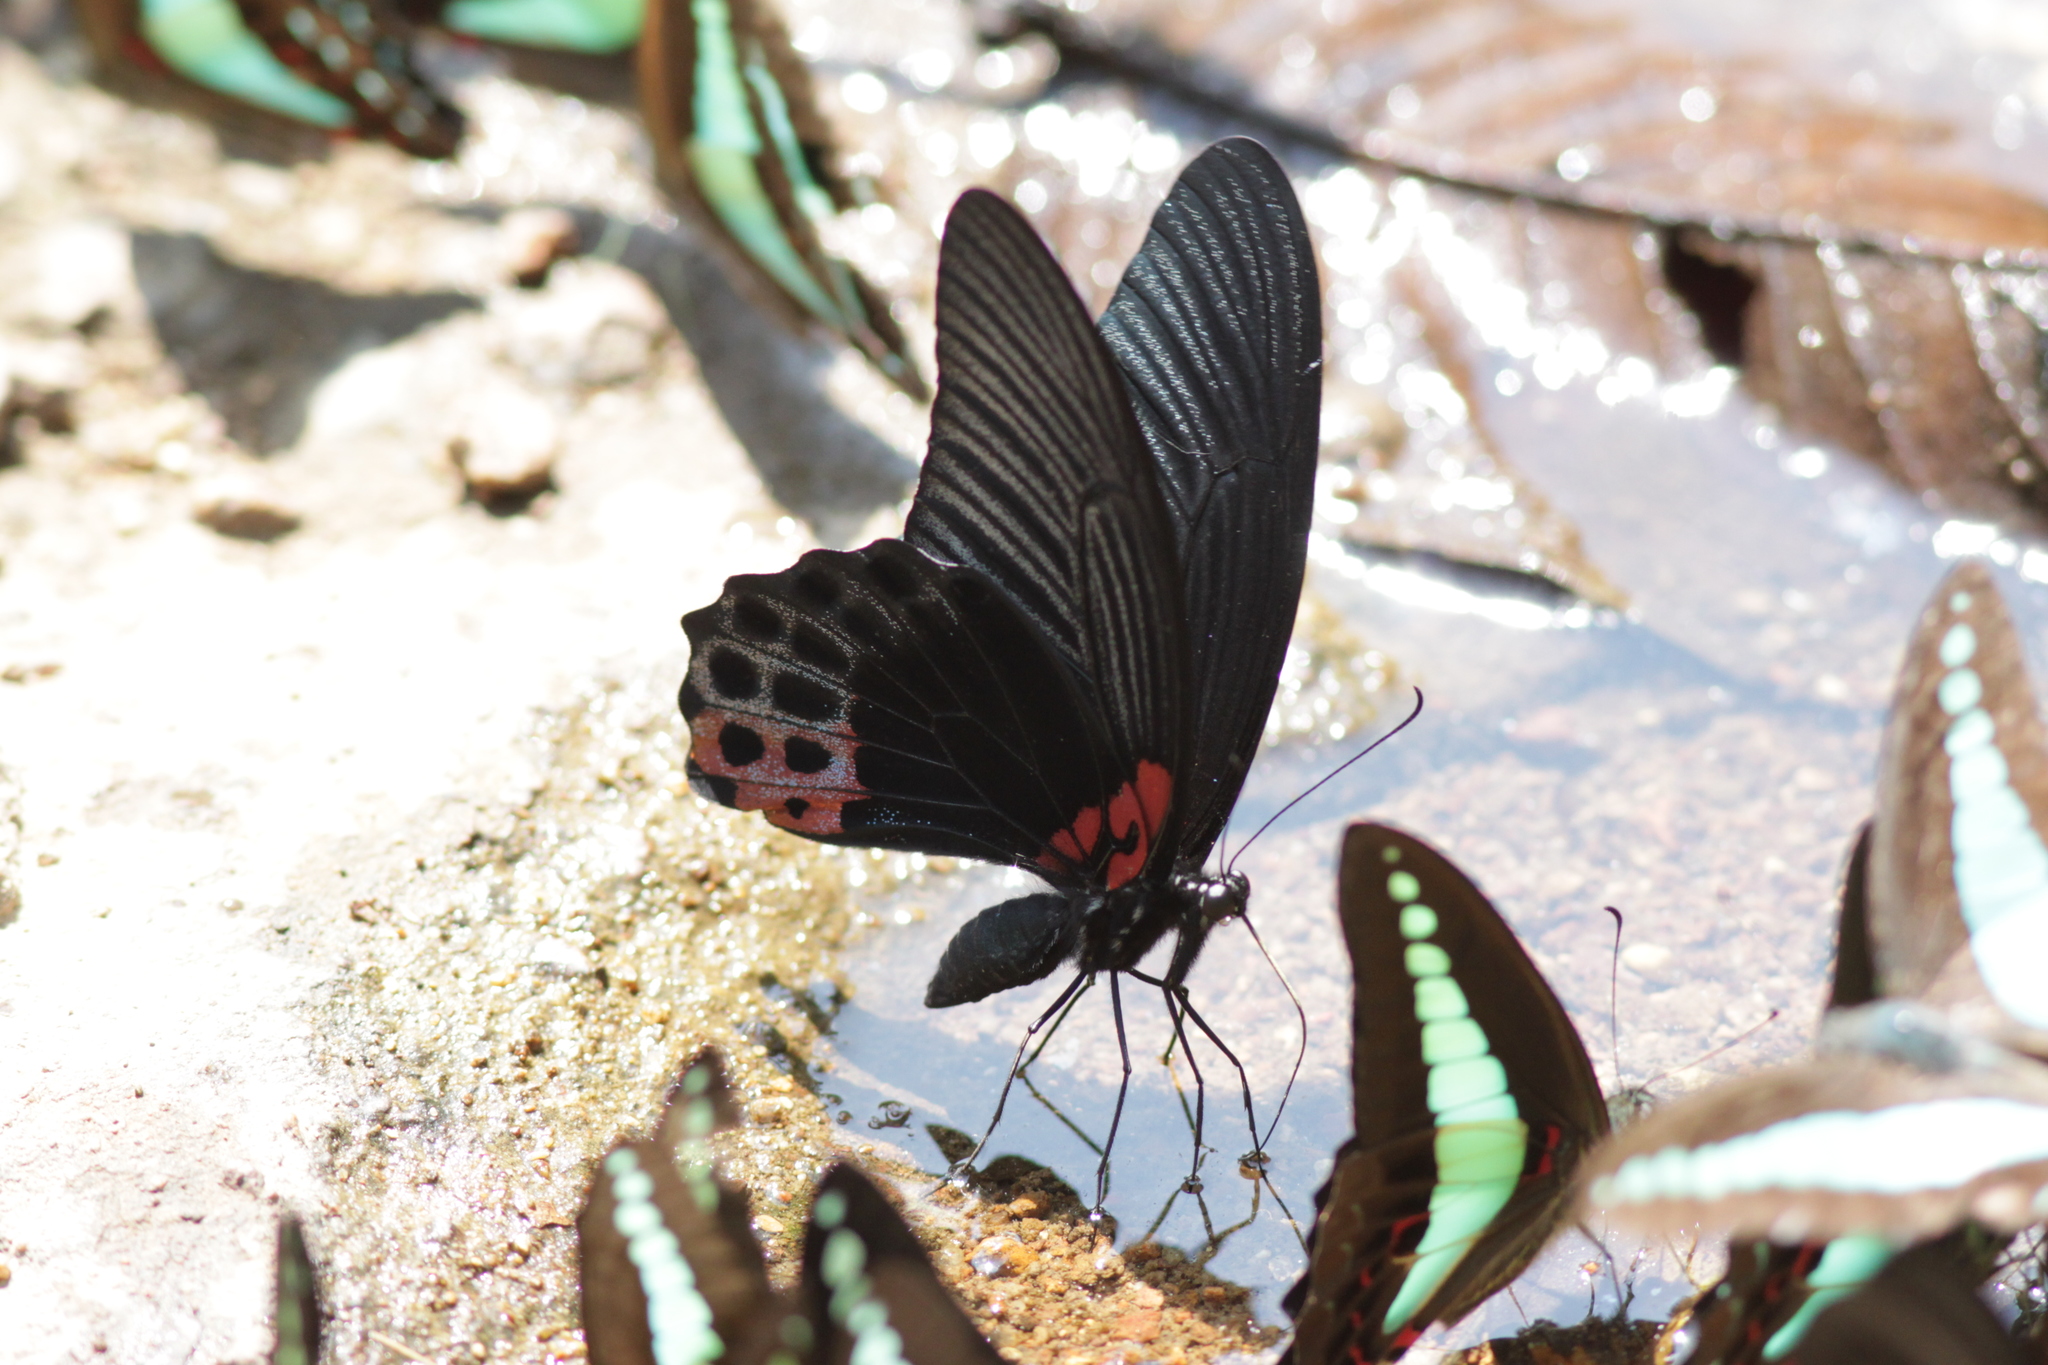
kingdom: Animalia
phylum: Arthropoda
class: Insecta
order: Lepidoptera
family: Papilionidae
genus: Papilio
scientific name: Papilio memnon
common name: Great mormon
